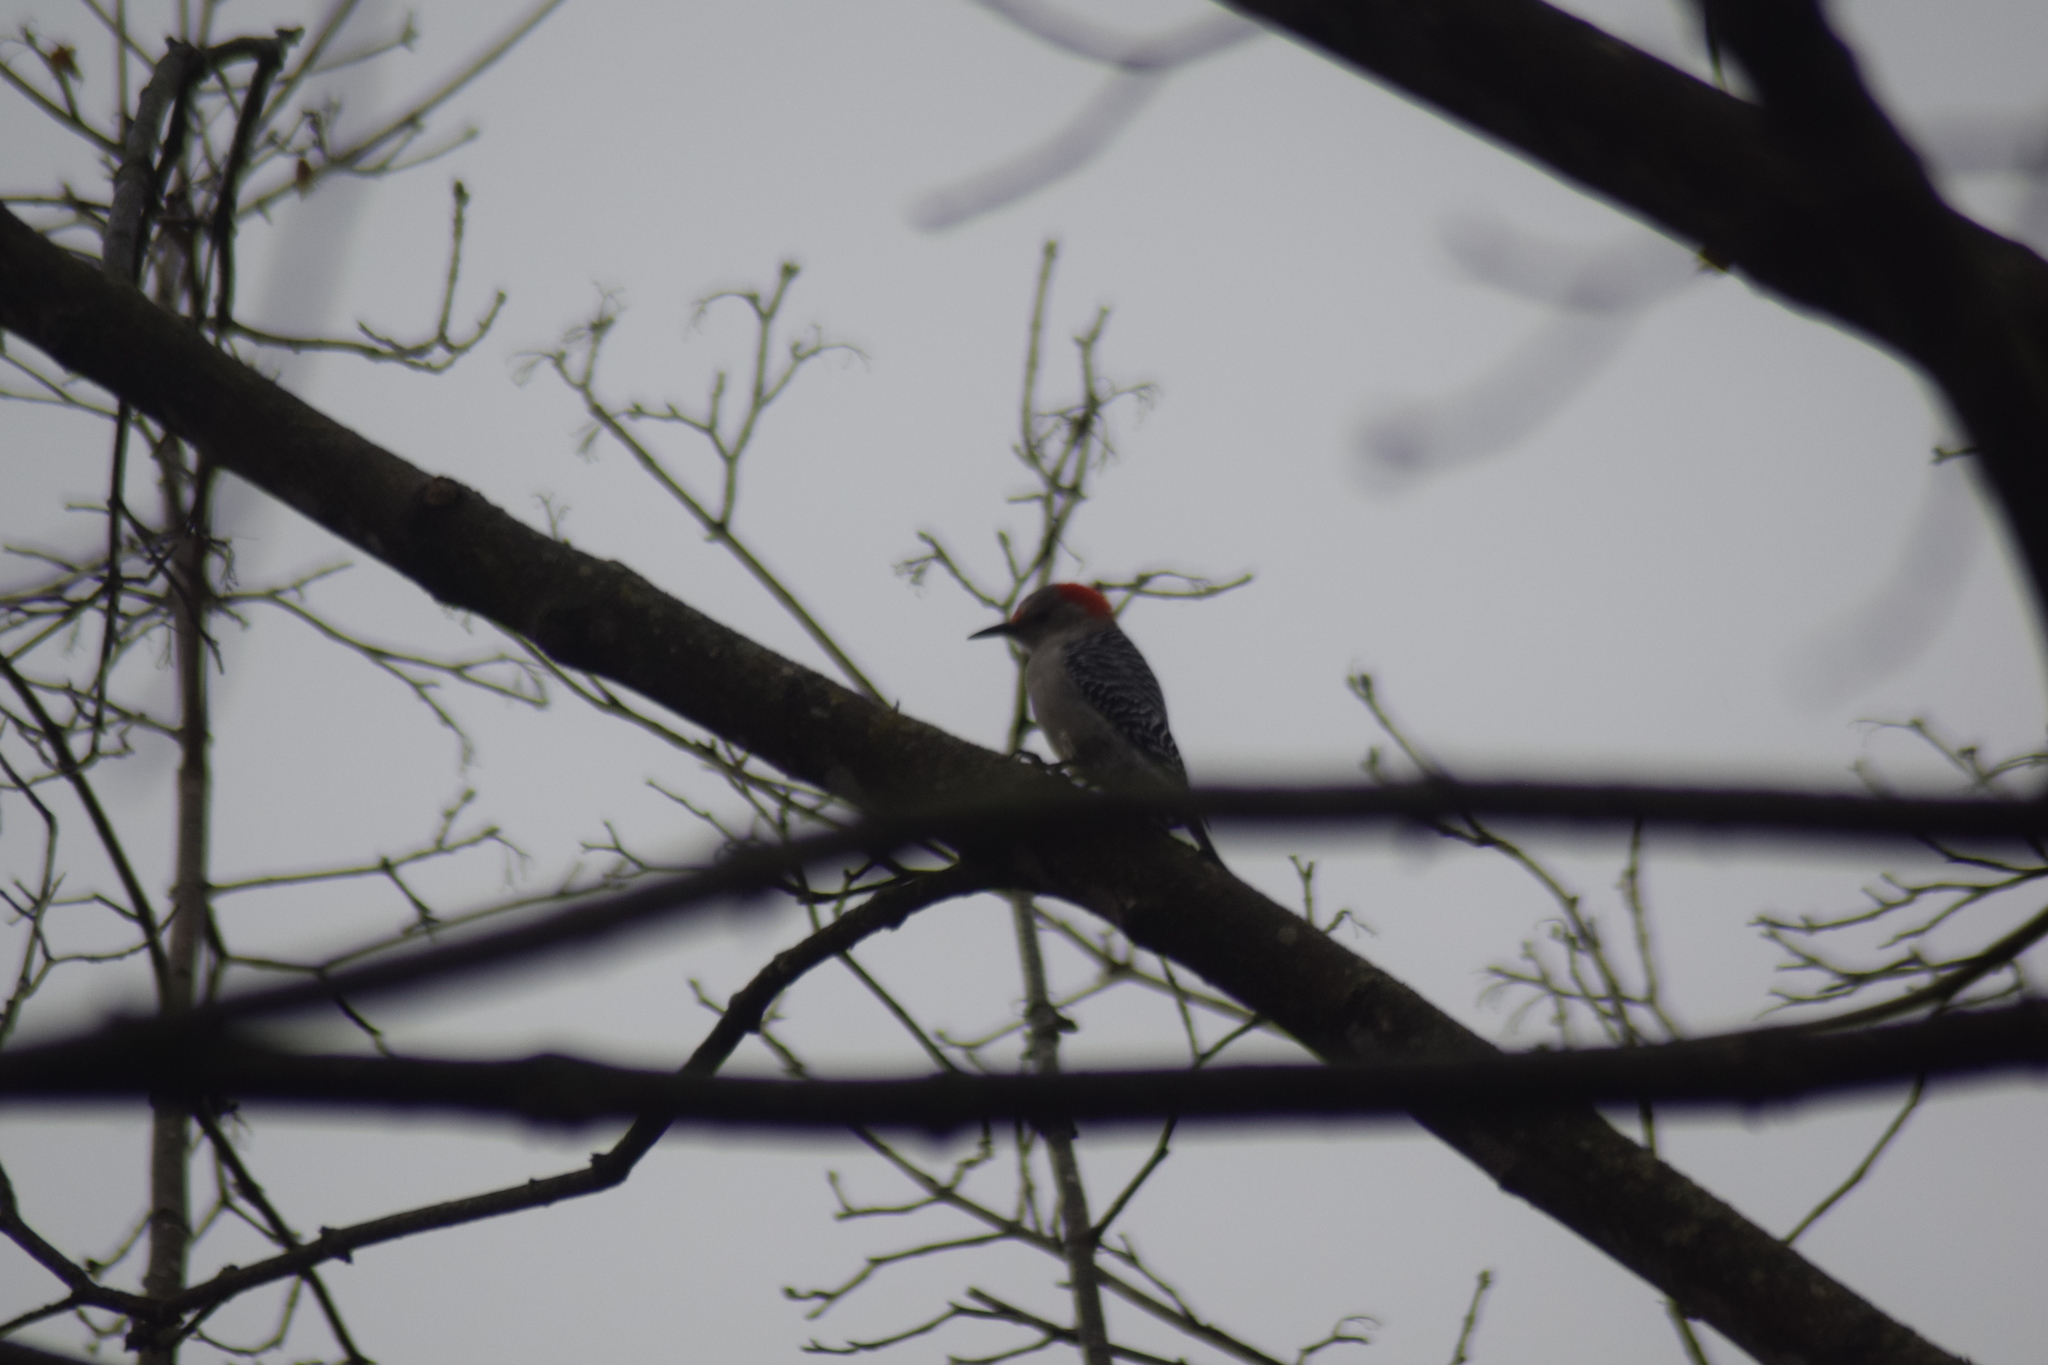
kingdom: Animalia
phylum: Chordata
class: Aves
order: Piciformes
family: Picidae
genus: Melanerpes
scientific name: Melanerpes carolinus
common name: Red-bellied woodpecker
